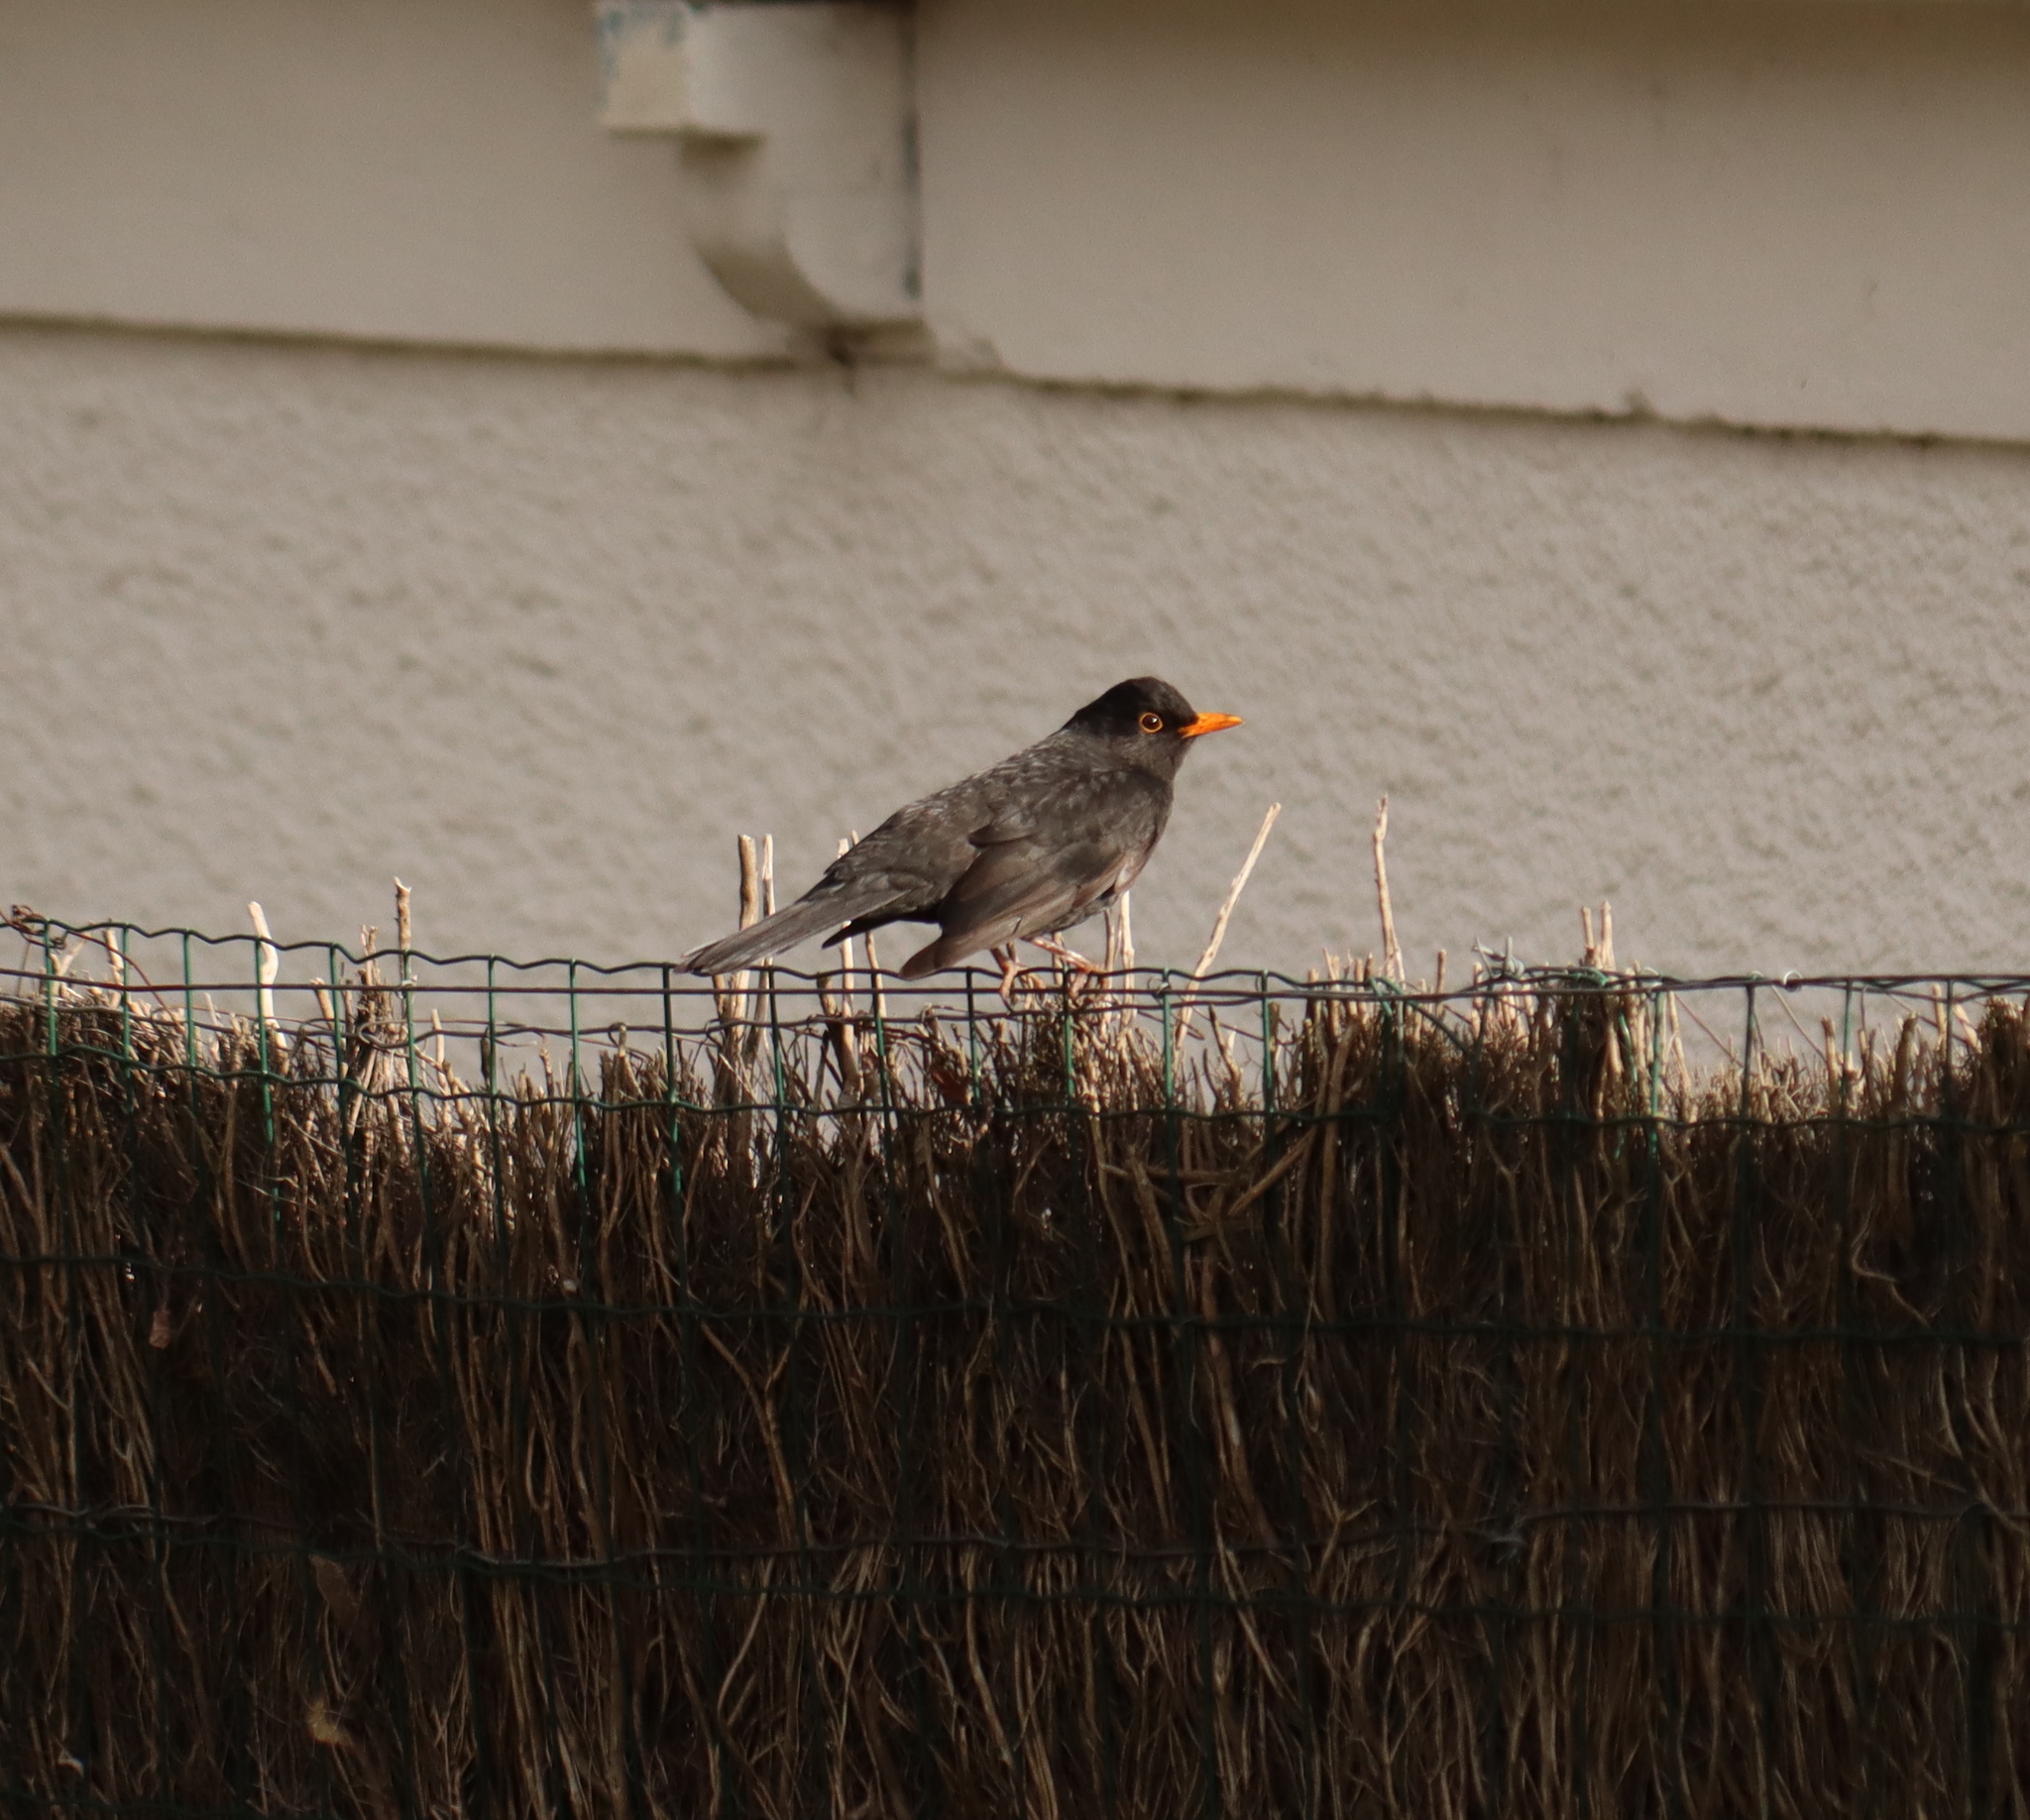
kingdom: Animalia
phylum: Chordata
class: Aves
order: Passeriformes
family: Turdidae
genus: Turdus
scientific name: Turdus merula
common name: Common blackbird
